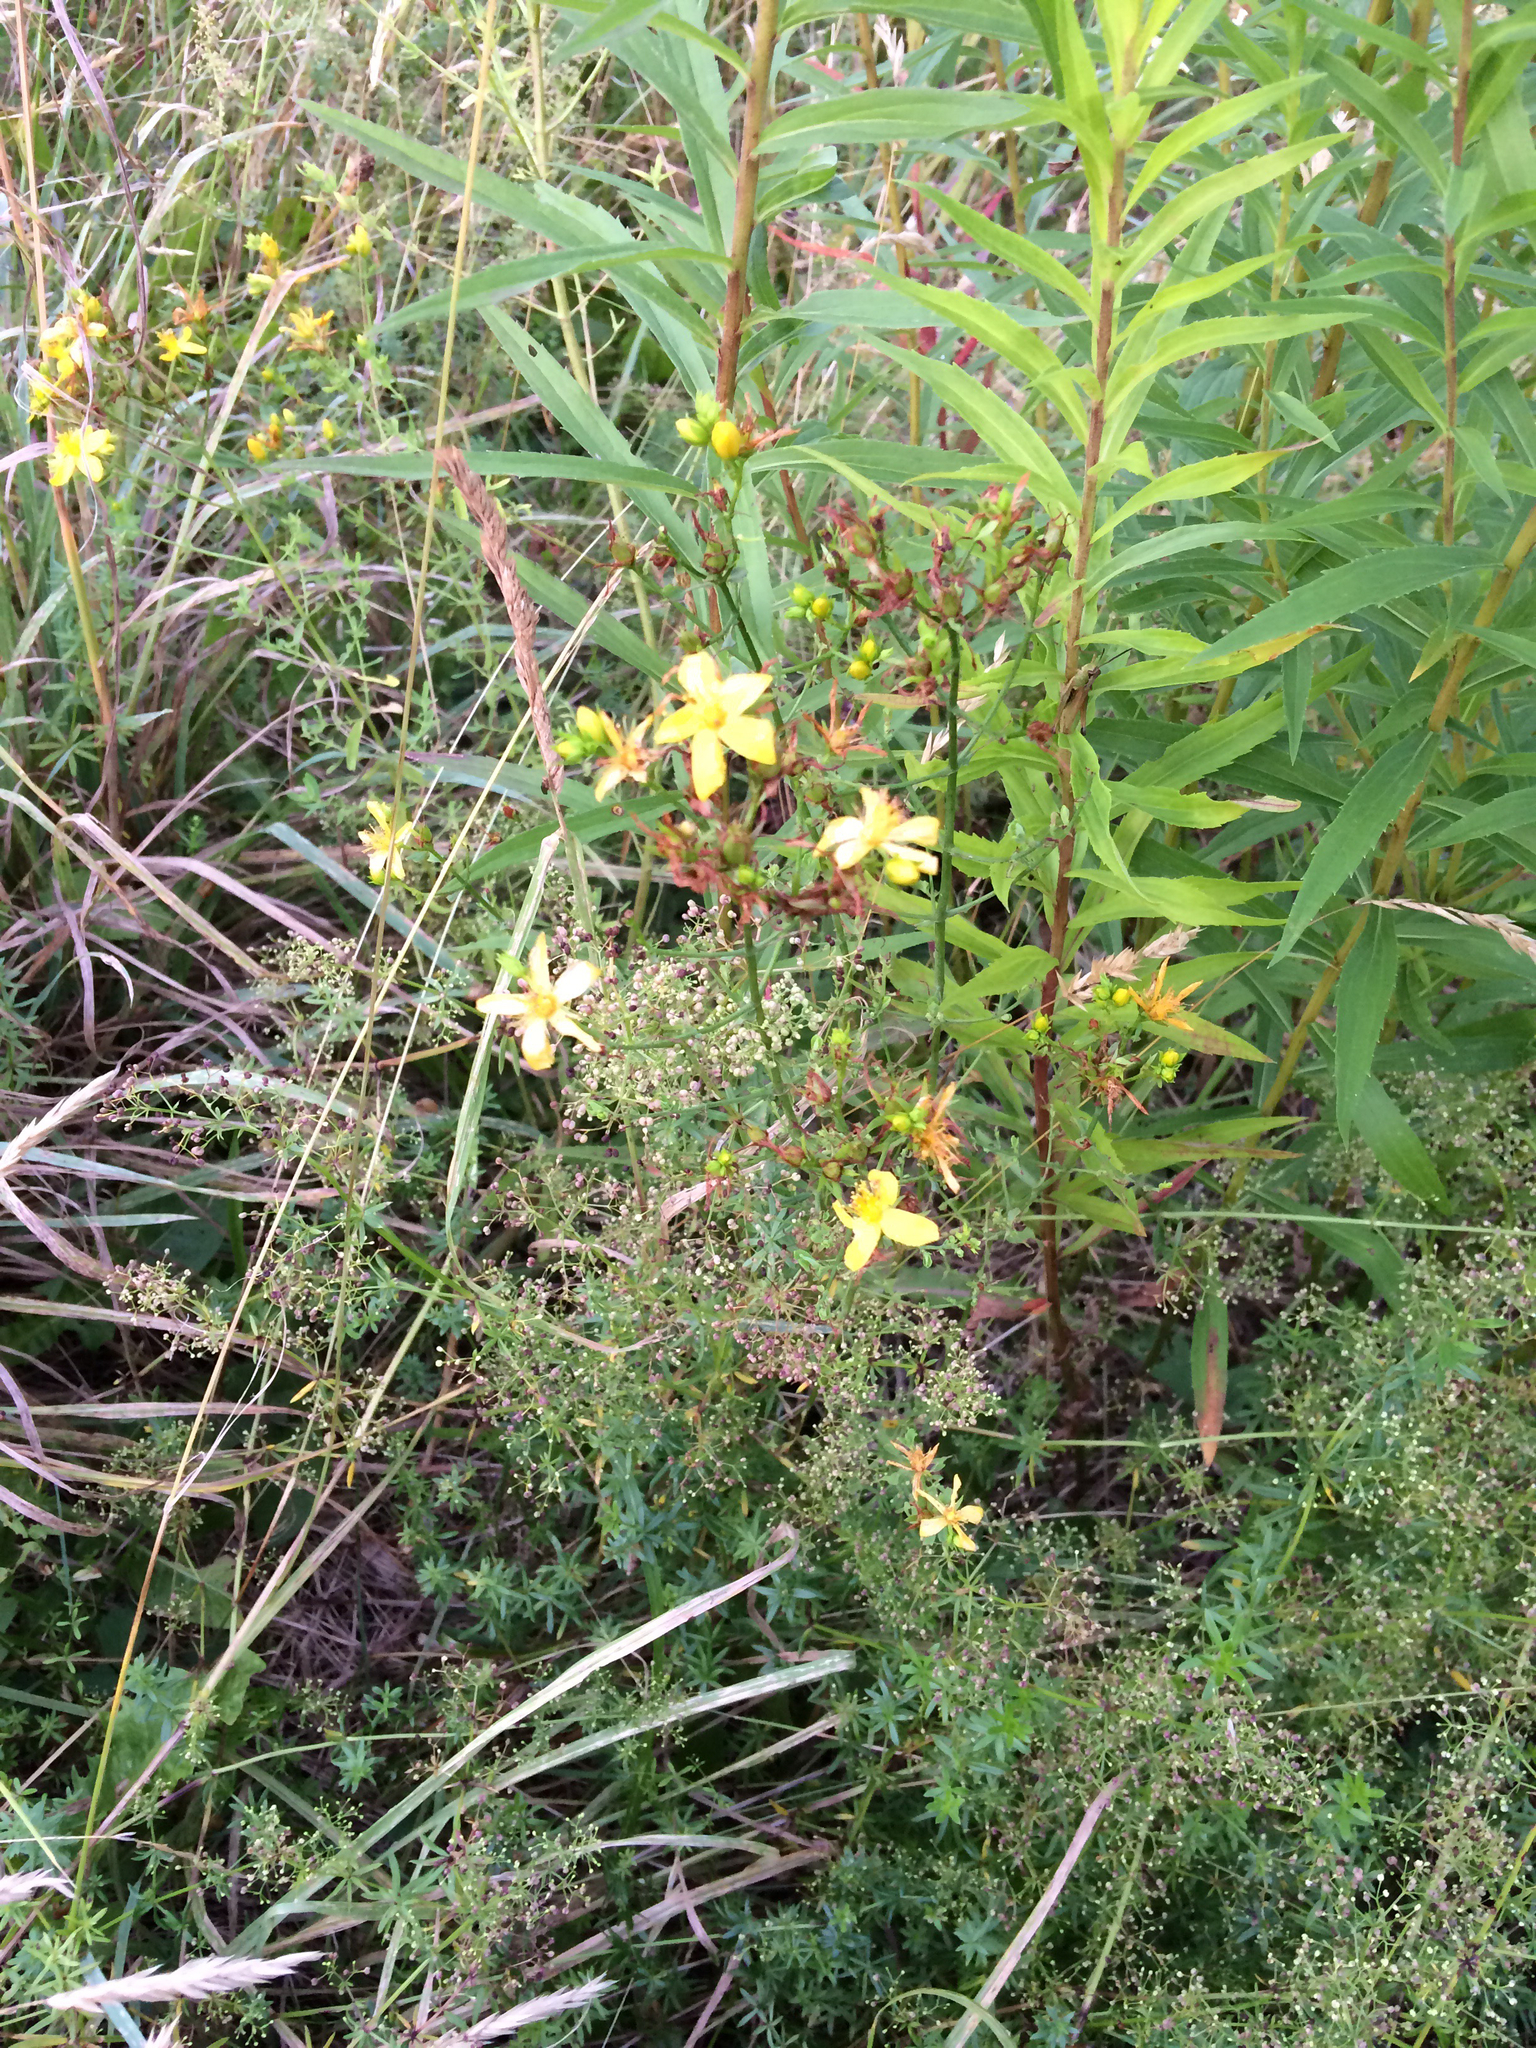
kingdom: Plantae
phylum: Tracheophyta
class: Magnoliopsida
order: Malpighiales
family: Hypericaceae
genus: Hypericum
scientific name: Hypericum perforatum
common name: Common st. johnswort
